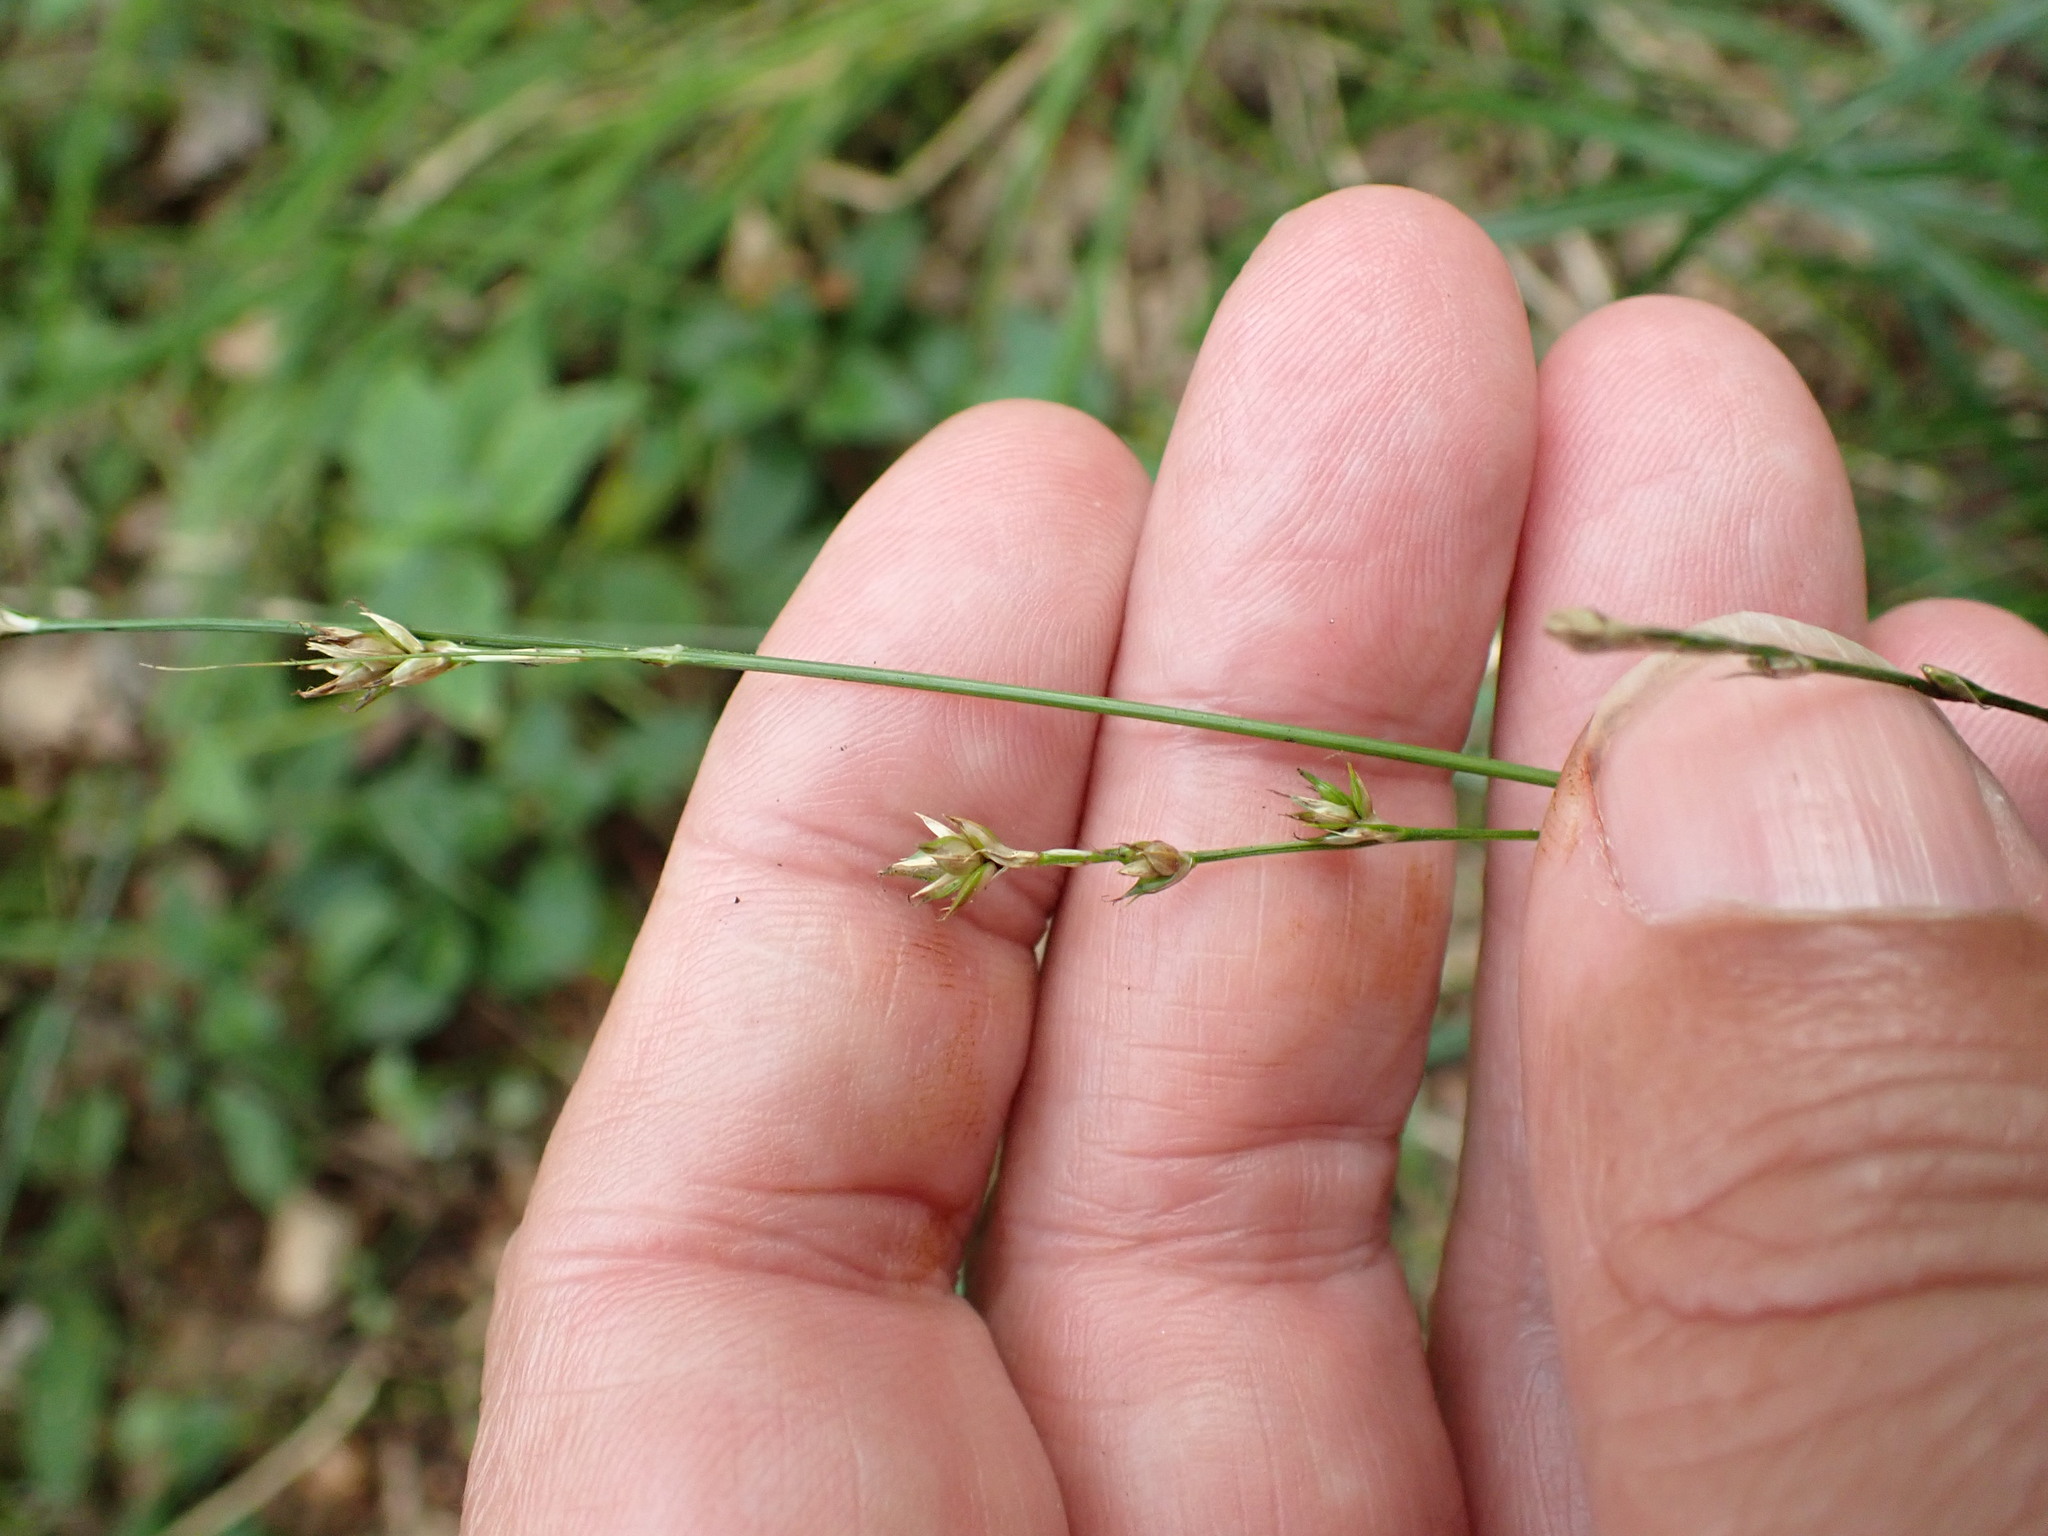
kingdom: Plantae
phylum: Tracheophyta
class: Liliopsida
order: Poales
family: Cyperaceae
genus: Carex
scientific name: Carex divulsa
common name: Grassland sedge
